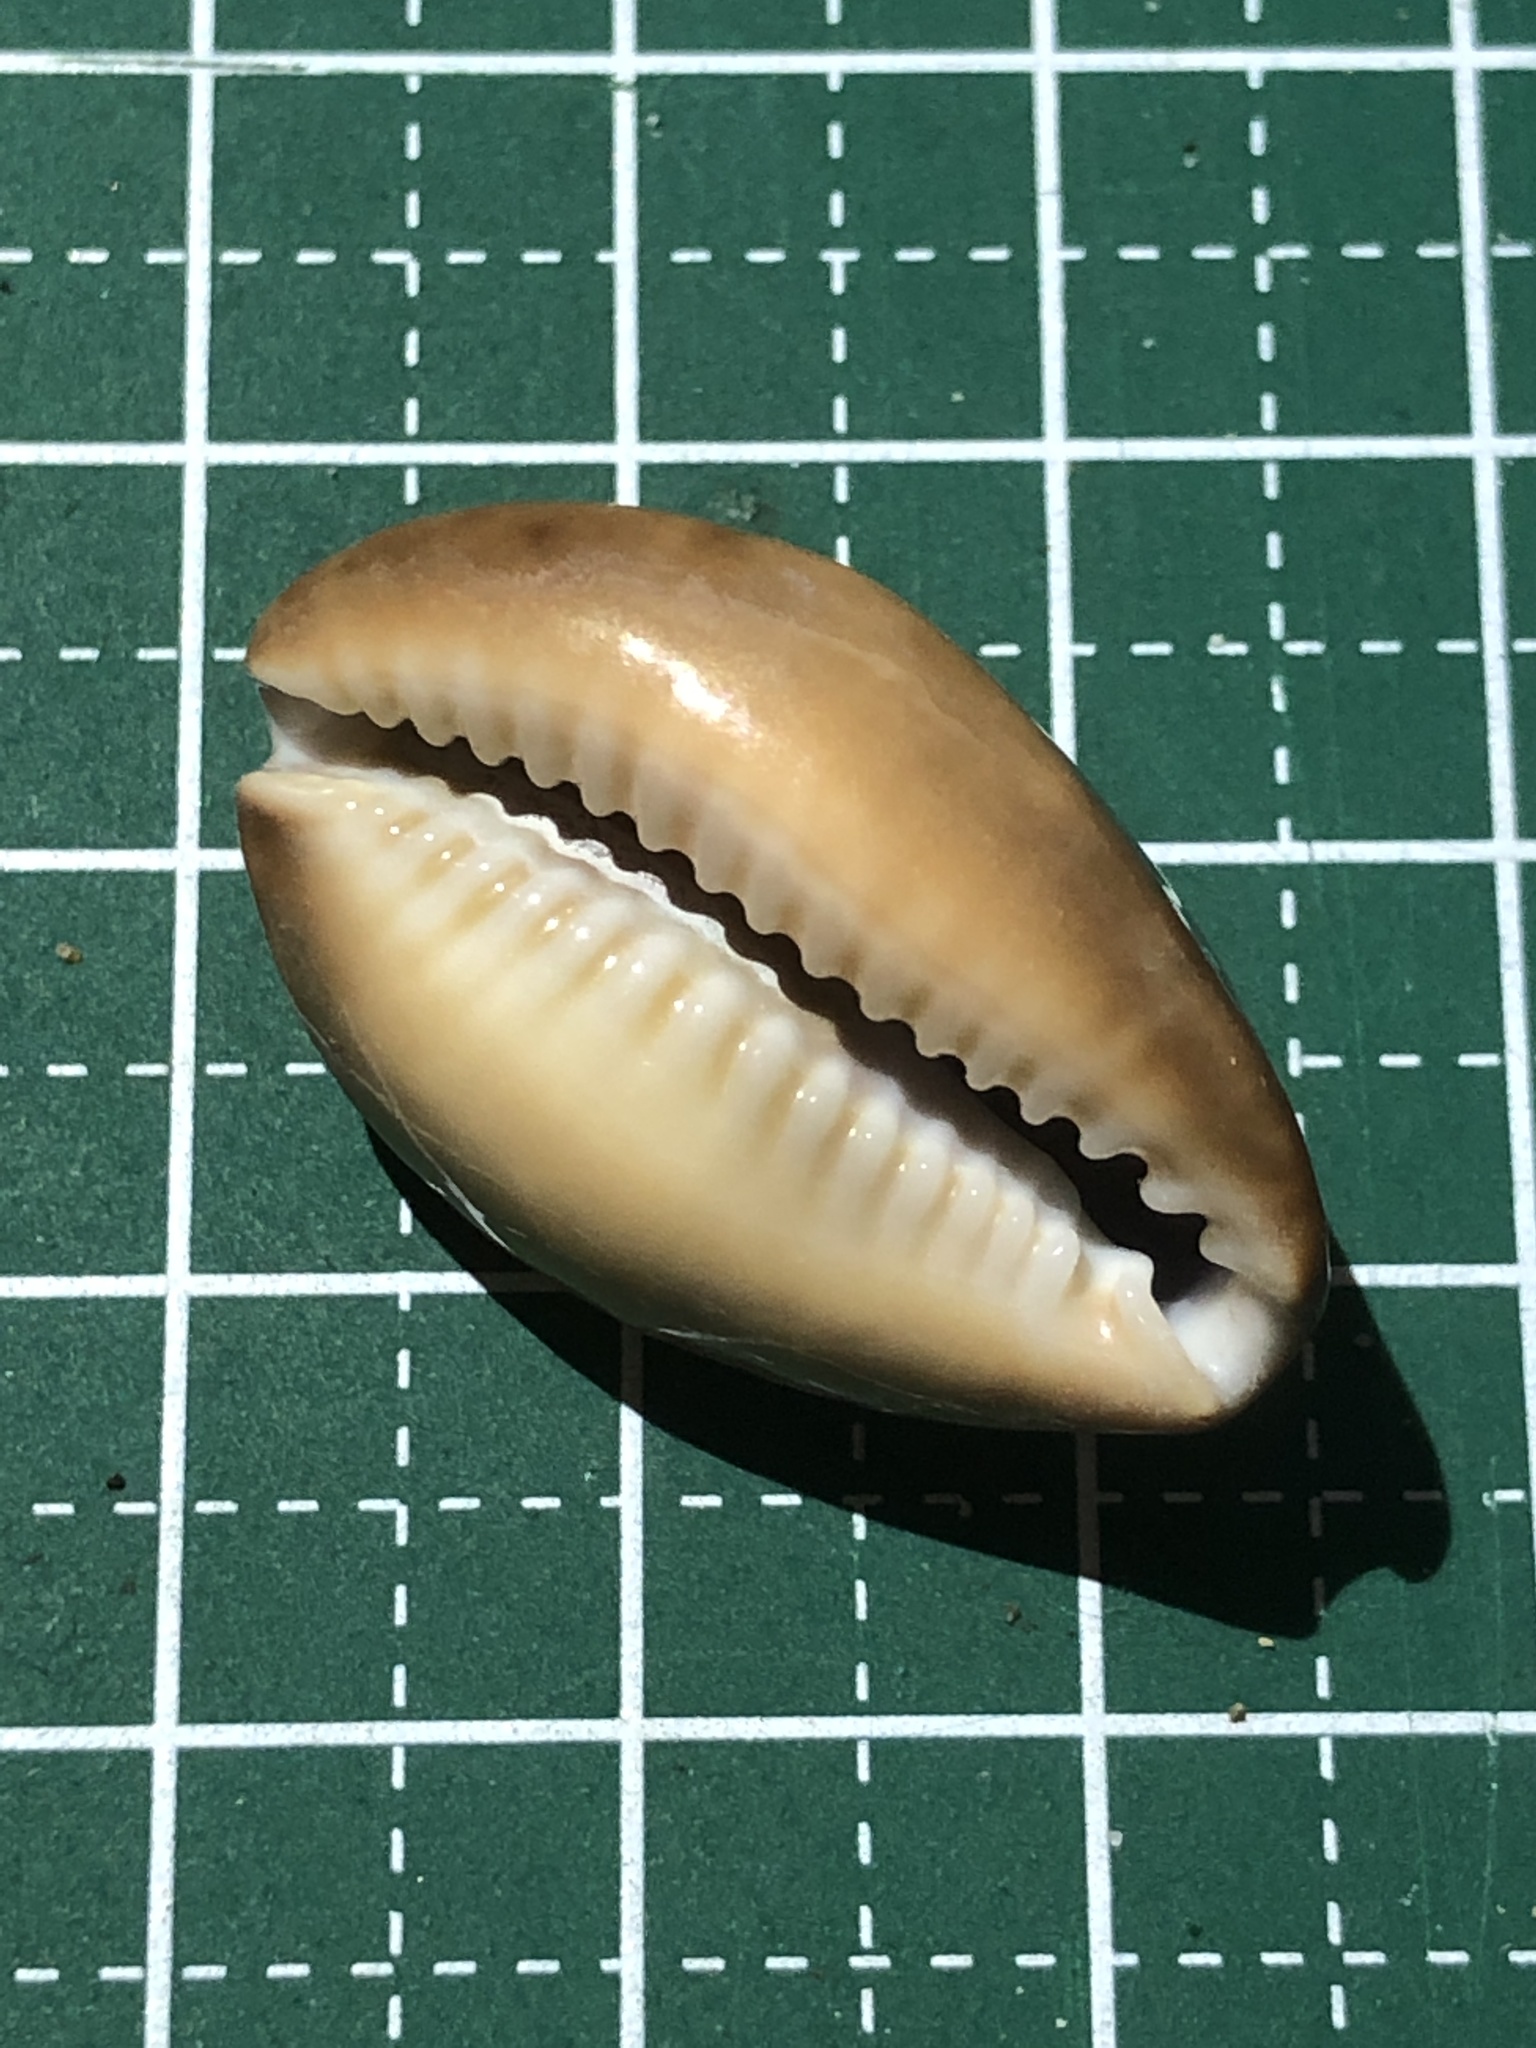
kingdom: Animalia
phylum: Mollusca
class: Gastropoda
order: Littorinimorpha
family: Cypraeidae
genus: Monetaria
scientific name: Monetaria caputserpentis
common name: Serpent's head cowrie
